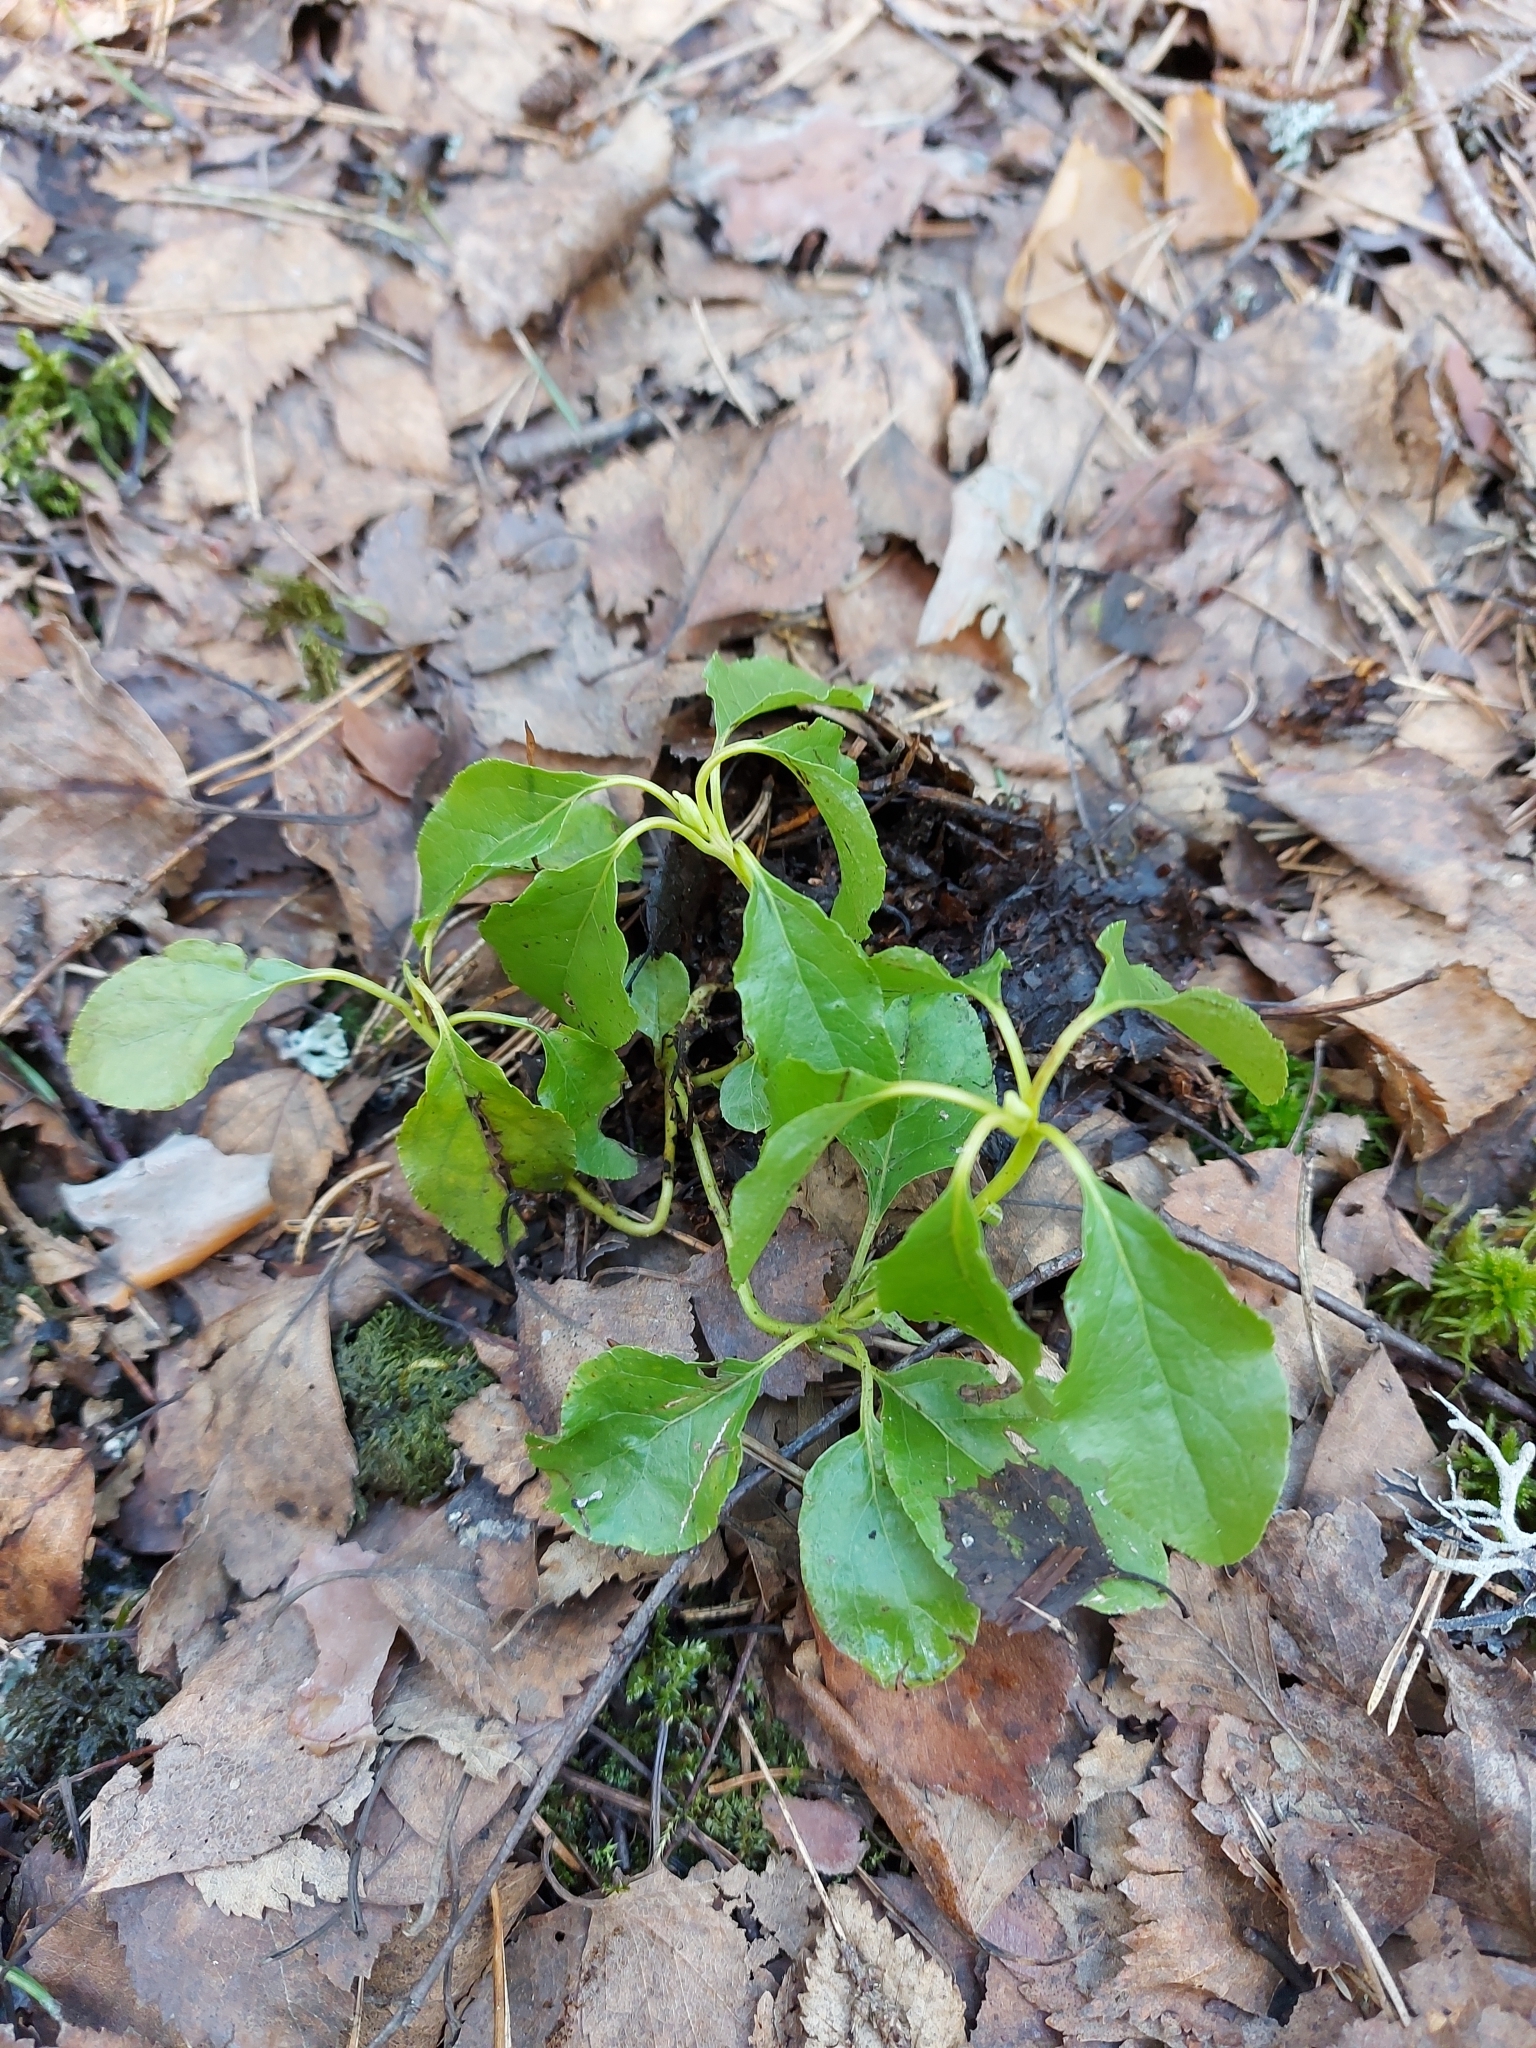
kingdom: Plantae
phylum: Tracheophyta
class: Magnoliopsida
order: Ericales
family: Ericaceae
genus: Orthilia
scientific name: Orthilia secunda
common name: One-sided orthilia
